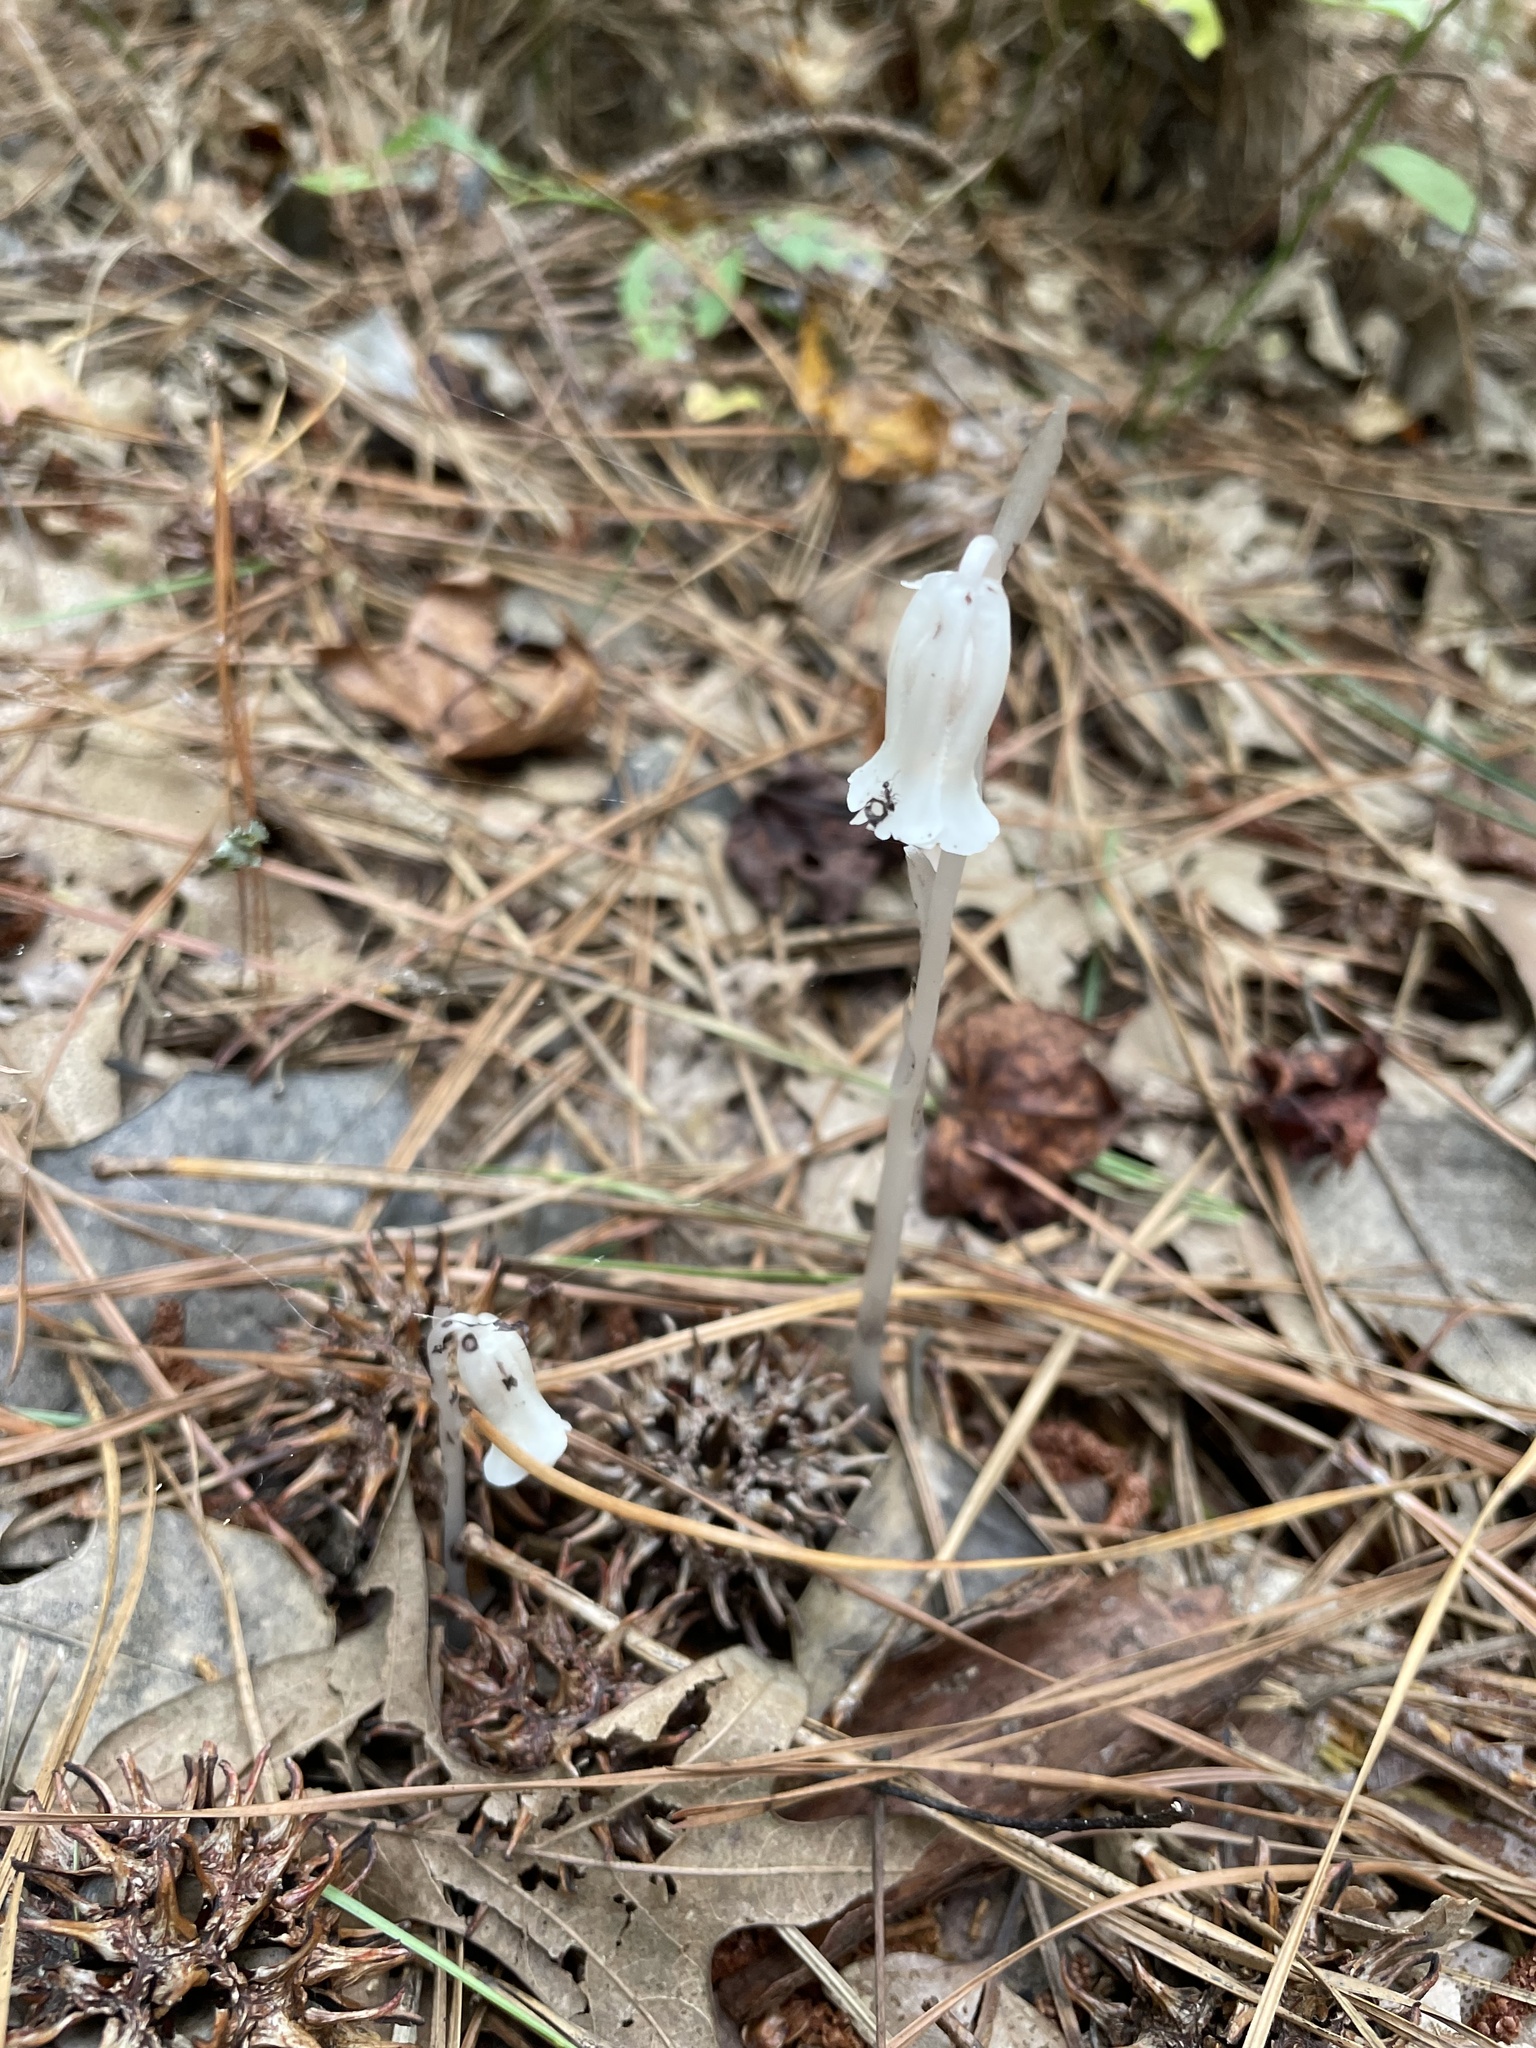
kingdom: Plantae
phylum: Tracheophyta
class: Magnoliopsida
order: Ericales
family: Ericaceae
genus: Monotropa
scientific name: Monotropa uniflora
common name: Convulsion root
